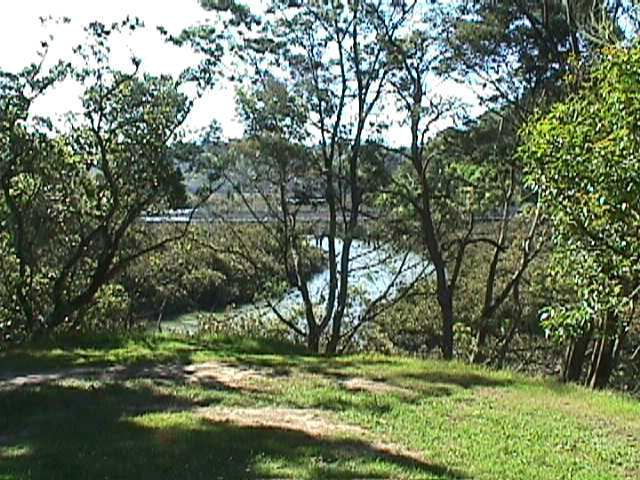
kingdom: Plantae
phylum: Tracheophyta
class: Magnoliopsida
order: Lamiales
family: Acanthaceae
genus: Avicennia
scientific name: Avicennia marina
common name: Gray mangrove
